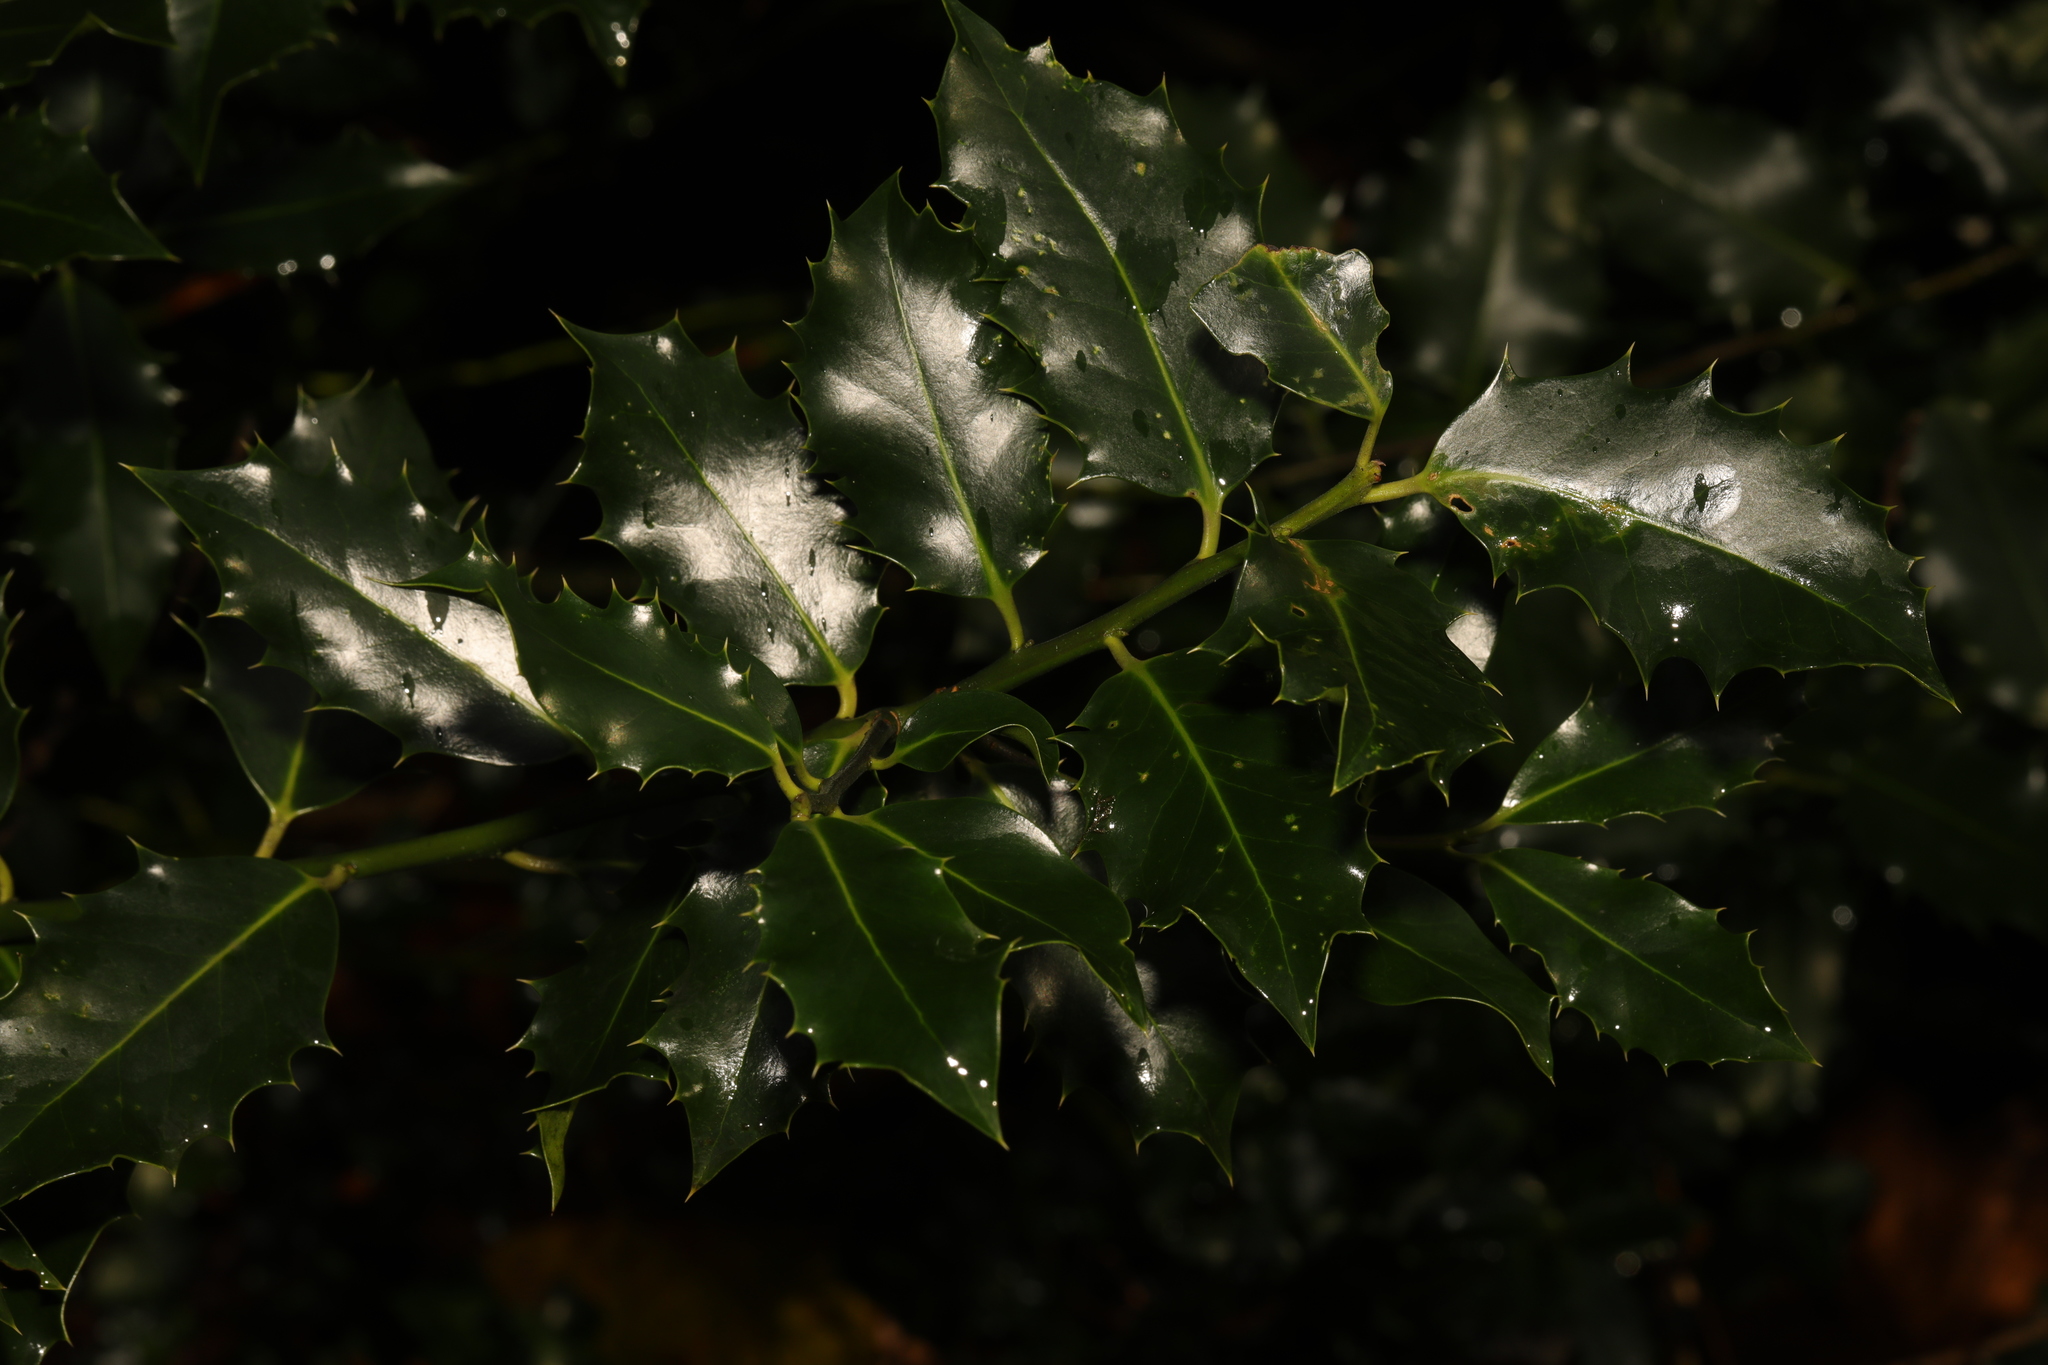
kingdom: Plantae
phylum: Tracheophyta
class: Magnoliopsida
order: Aquifoliales
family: Aquifoliaceae
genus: Ilex
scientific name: Ilex aquifolium
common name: English holly
